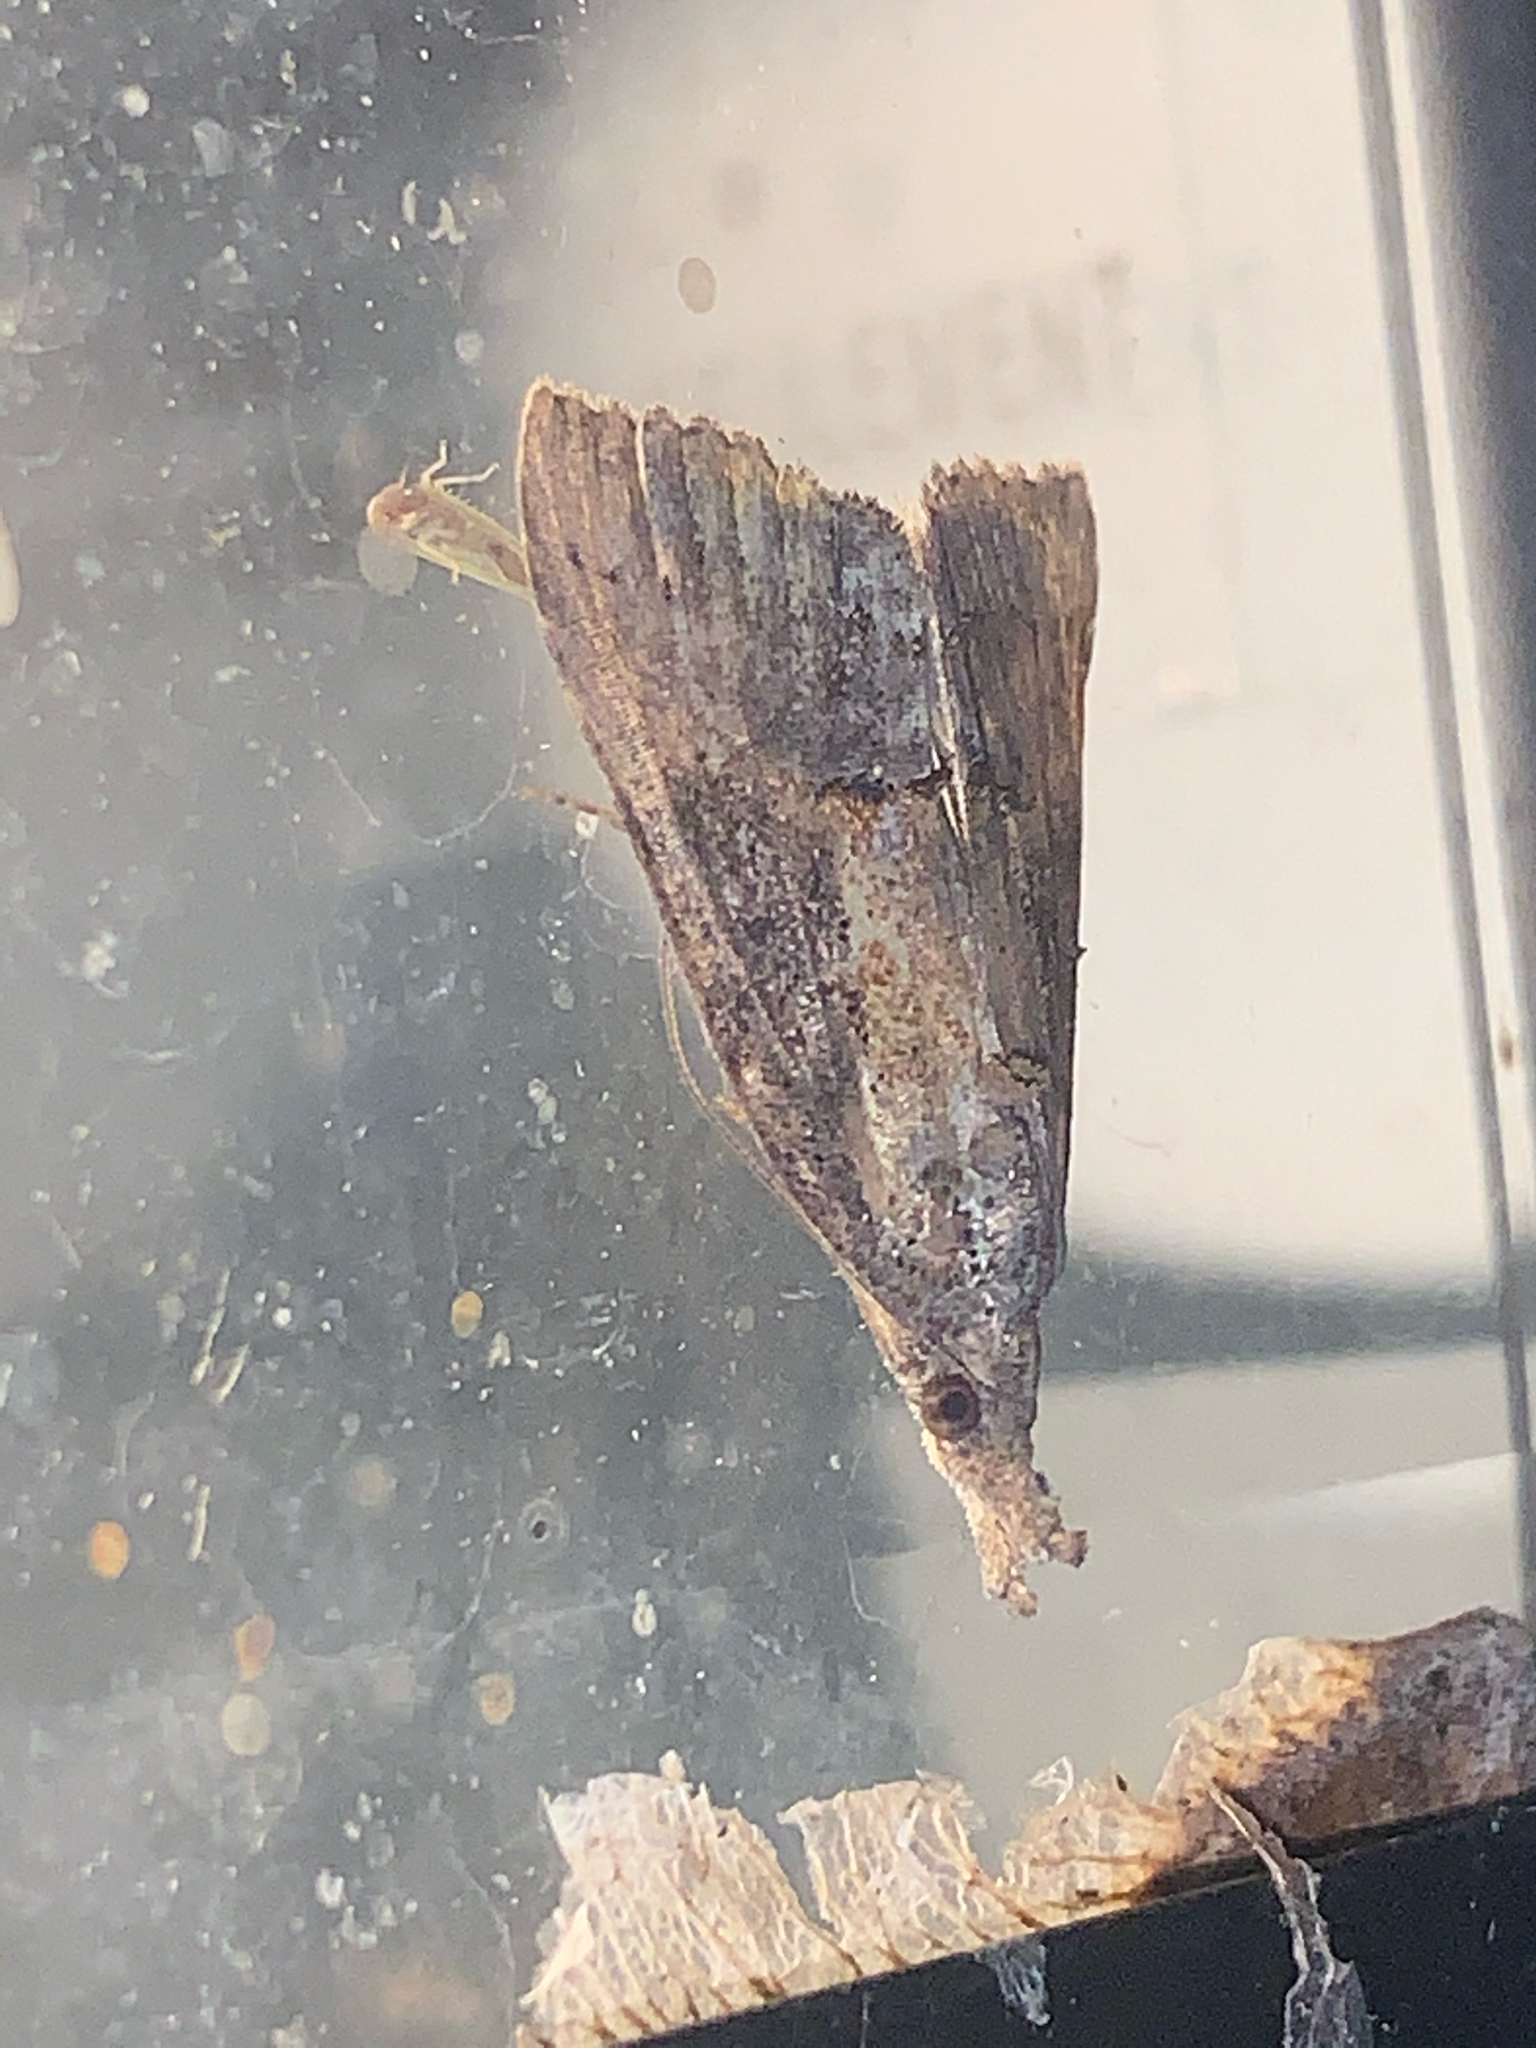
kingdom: Animalia
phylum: Arthropoda
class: Insecta
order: Lepidoptera
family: Erebidae
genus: Hypena
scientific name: Hypena scabra
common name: Green cloverworm
